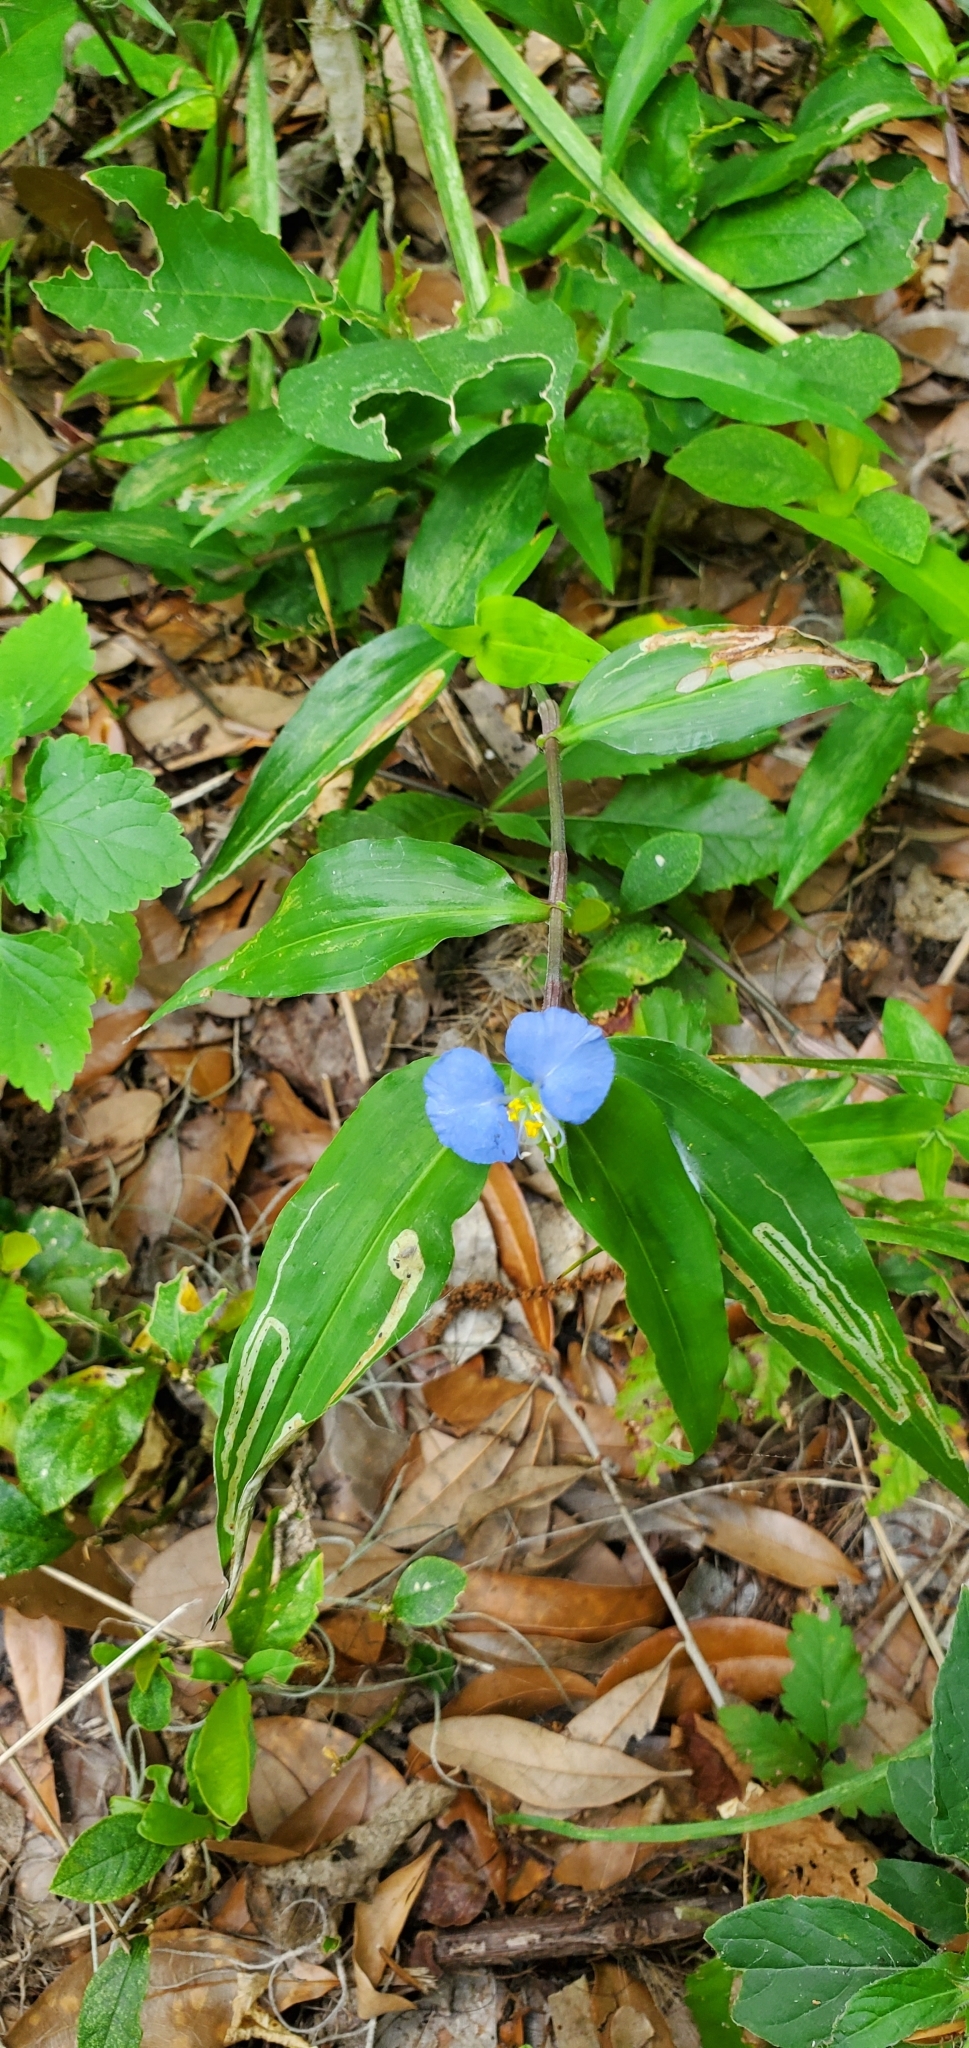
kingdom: Plantae
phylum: Tracheophyta
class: Liliopsida
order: Commelinales
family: Commelinaceae
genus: Commelina
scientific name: Commelina erecta
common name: Blousel blommetjie
